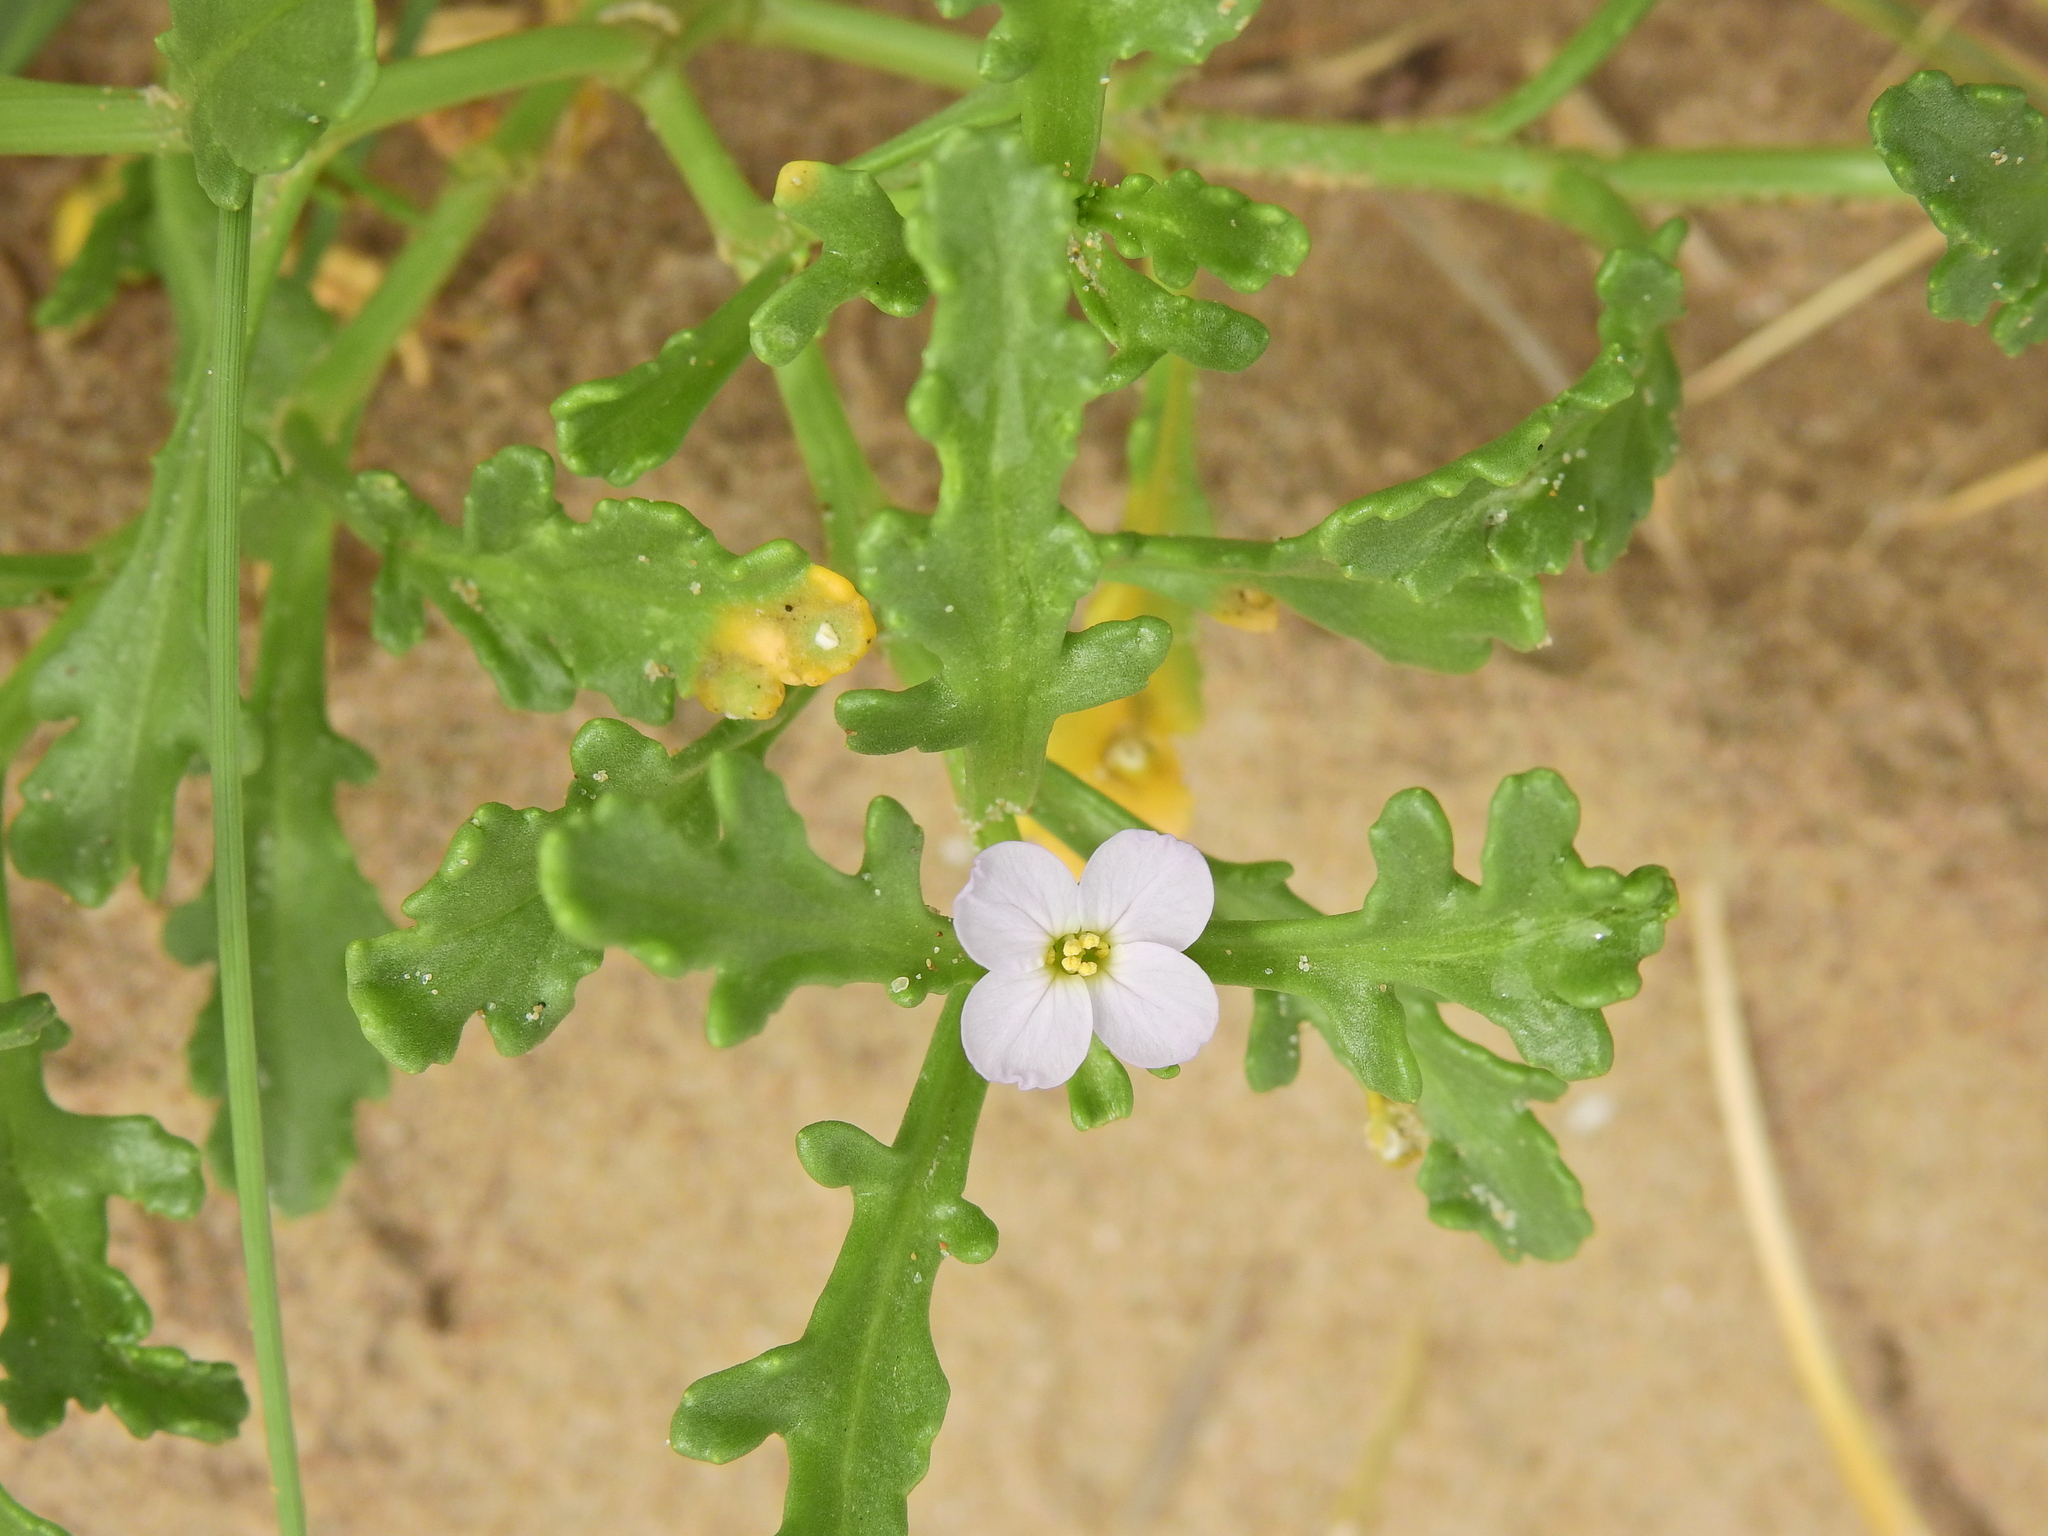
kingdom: Plantae
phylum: Tracheophyta
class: Magnoliopsida
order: Brassicales
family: Brassicaceae
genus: Cakile
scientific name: Cakile maritima
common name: Sea rocket
